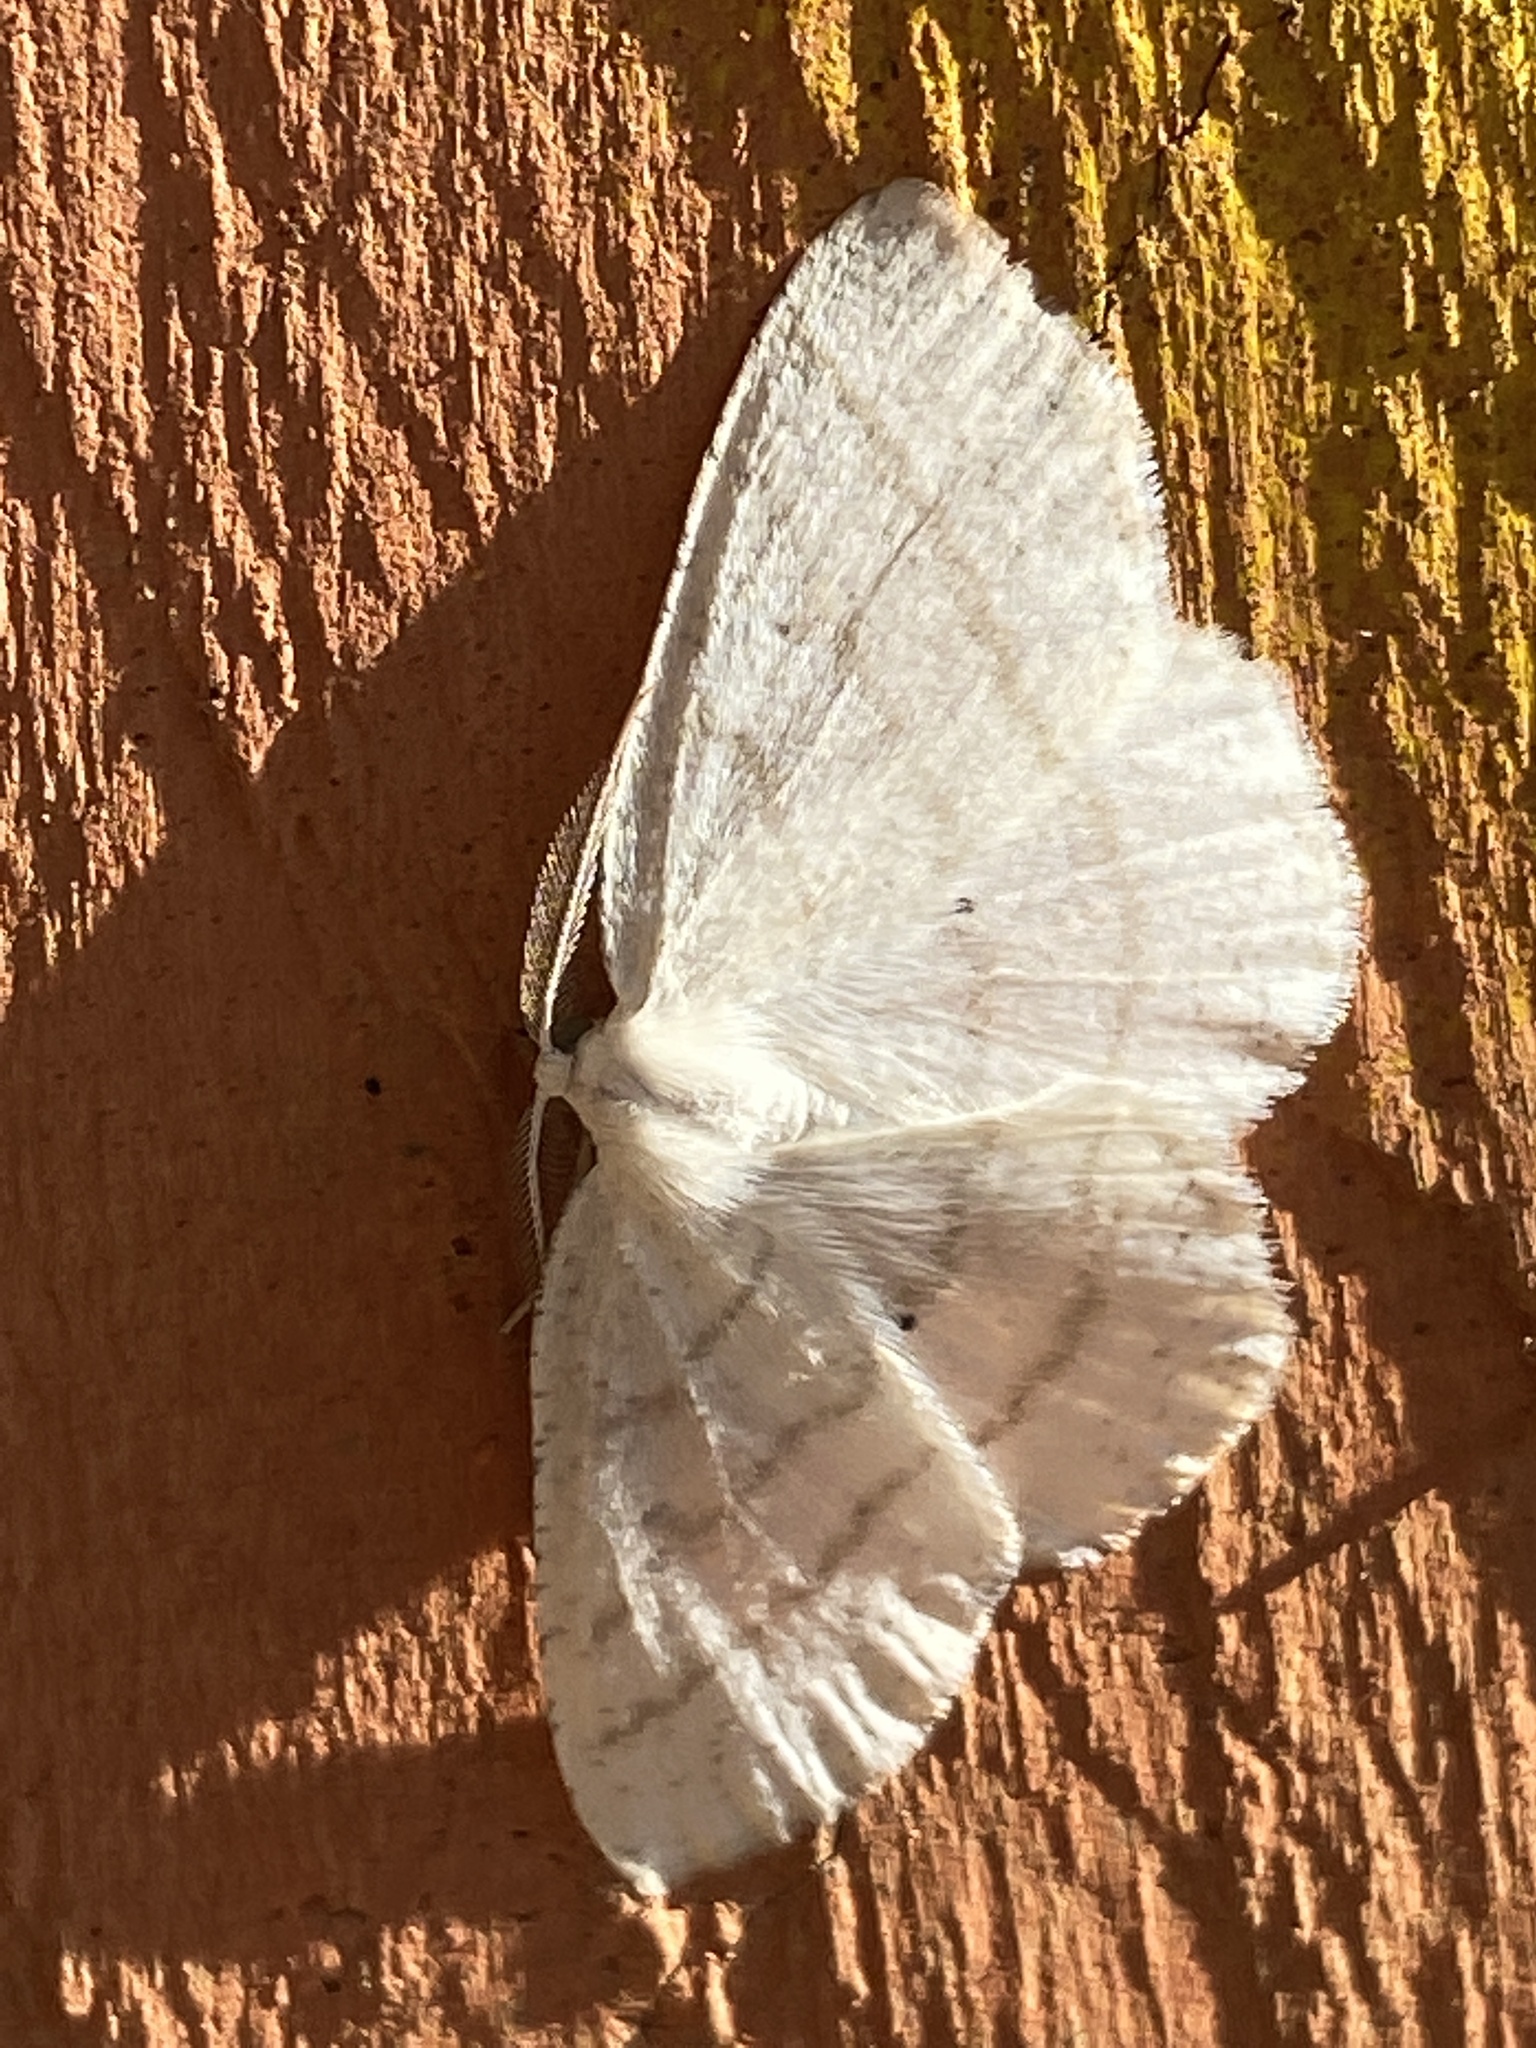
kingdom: Animalia
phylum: Arthropoda
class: Insecta
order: Lepidoptera
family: Geometridae
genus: Cabera
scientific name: Cabera pusaria
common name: Common white wave
